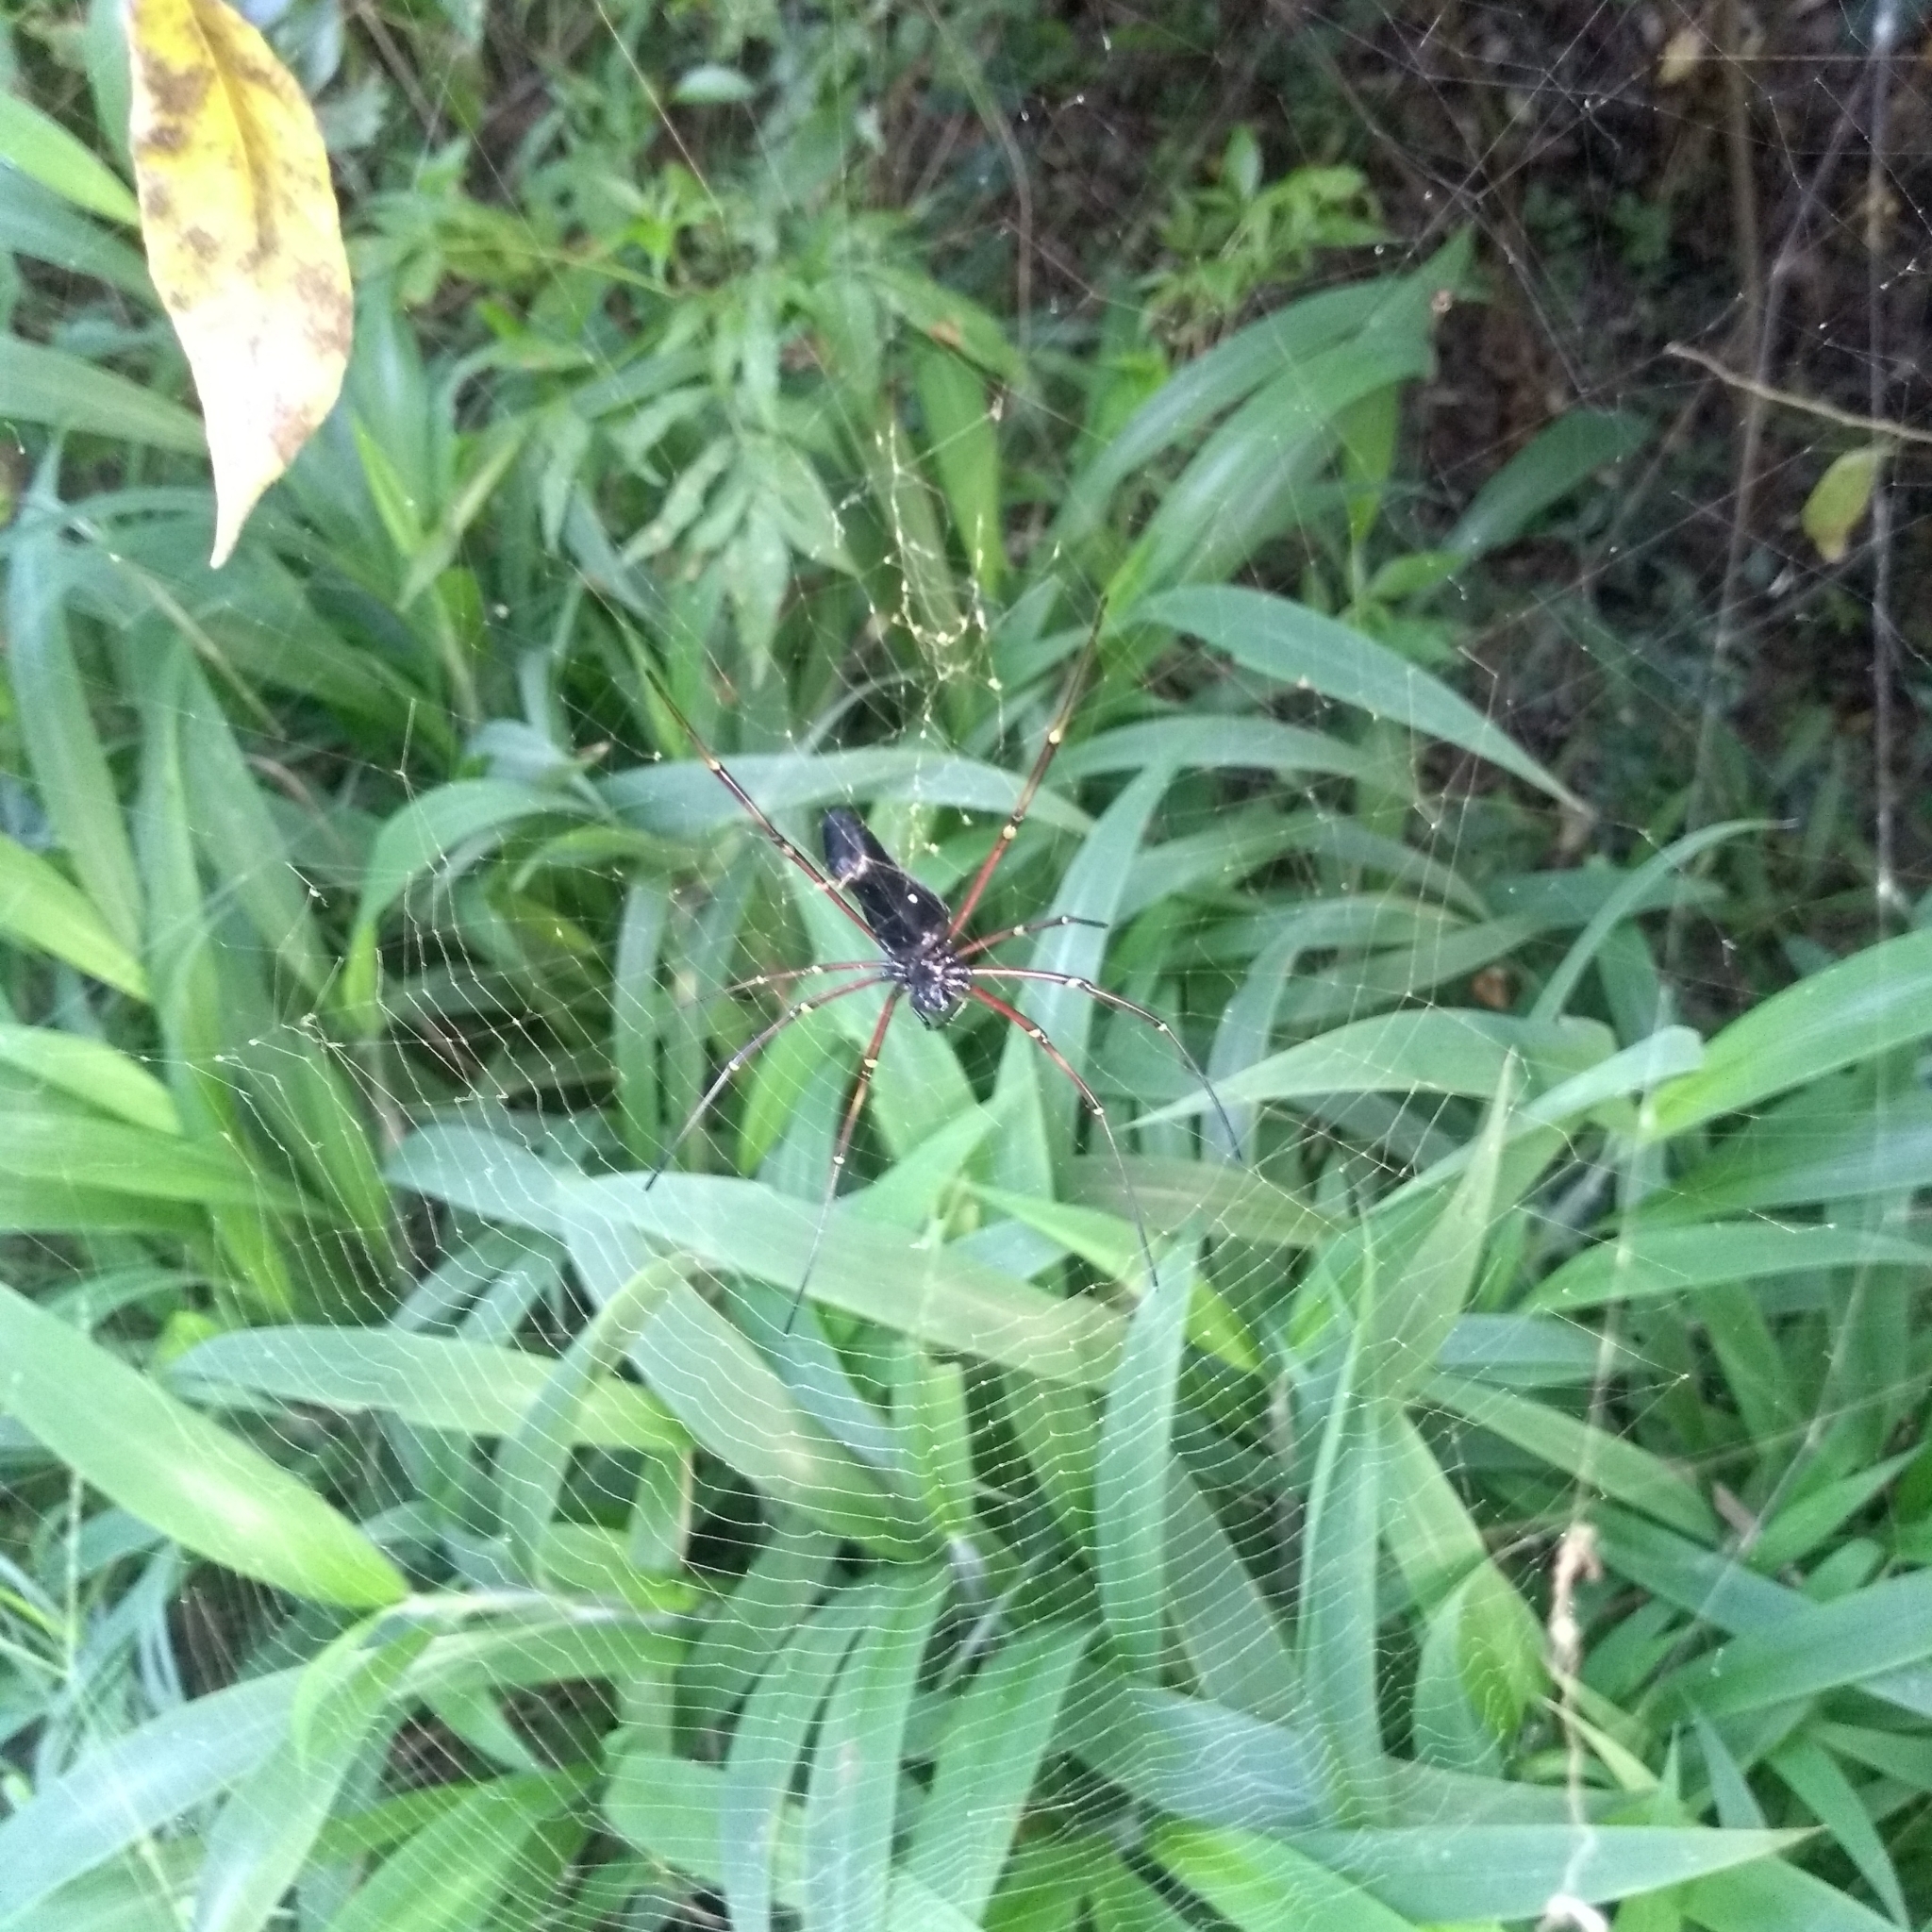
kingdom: Animalia
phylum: Arthropoda
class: Arachnida
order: Araneae
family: Araneidae
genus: Nephila
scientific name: Nephila kuhli
